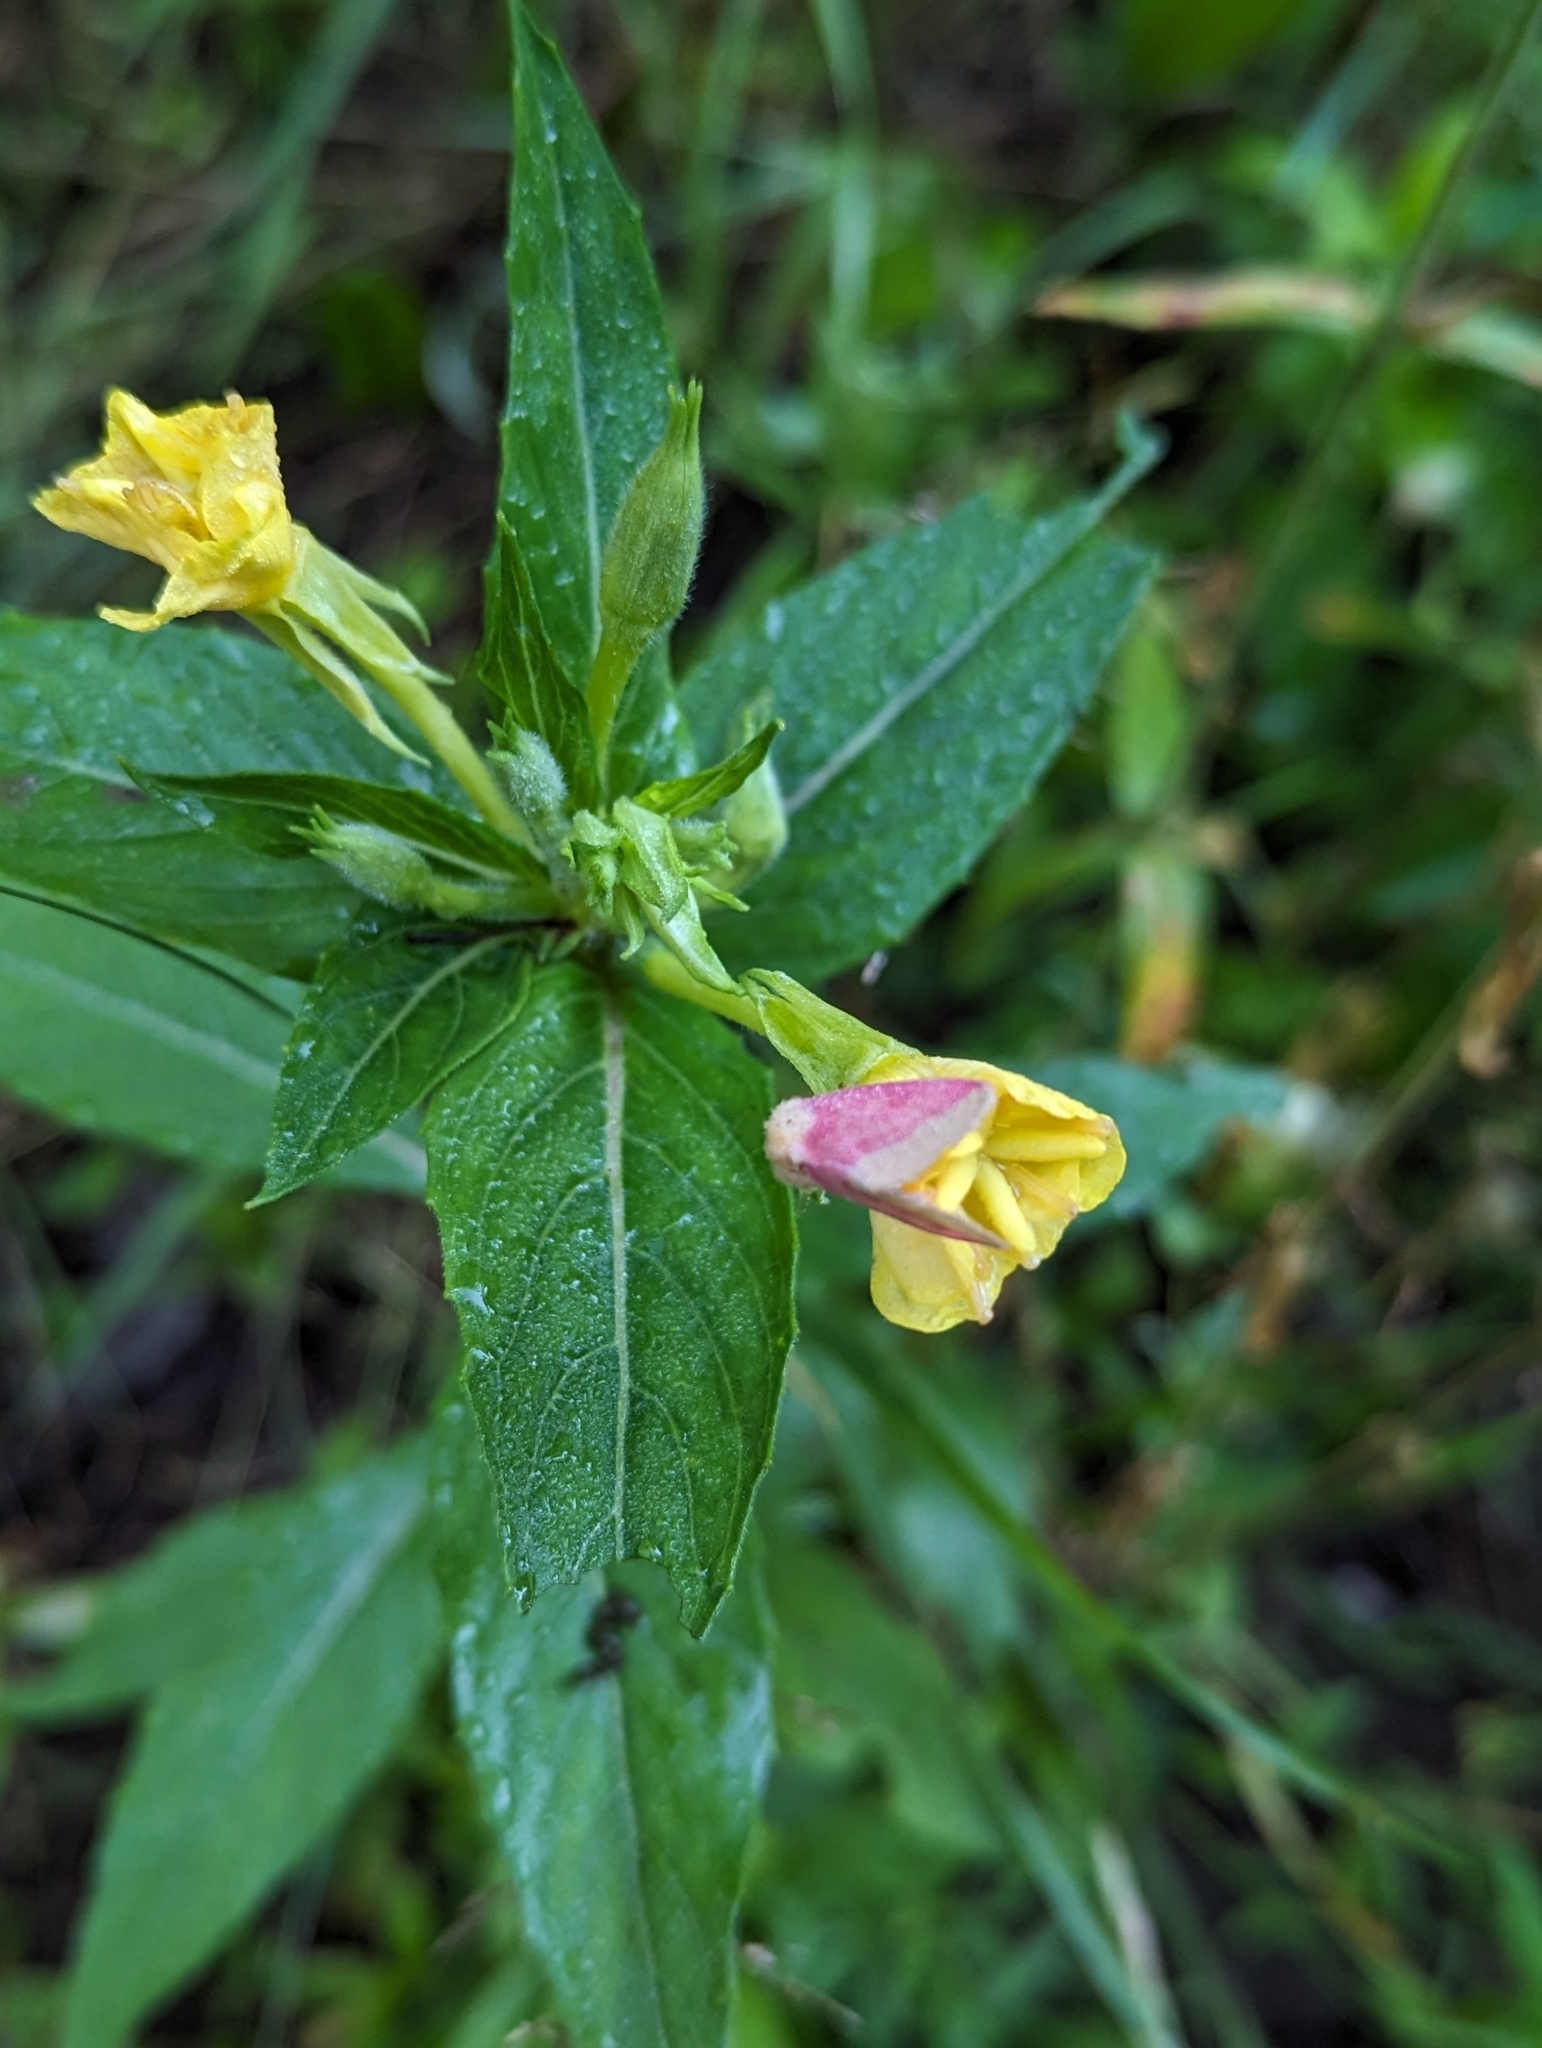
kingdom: Animalia
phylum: Arthropoda
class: Insecta
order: Lepidoptera
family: Noctuidae
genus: Schinia
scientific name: Schinia florida
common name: Primrose moth
